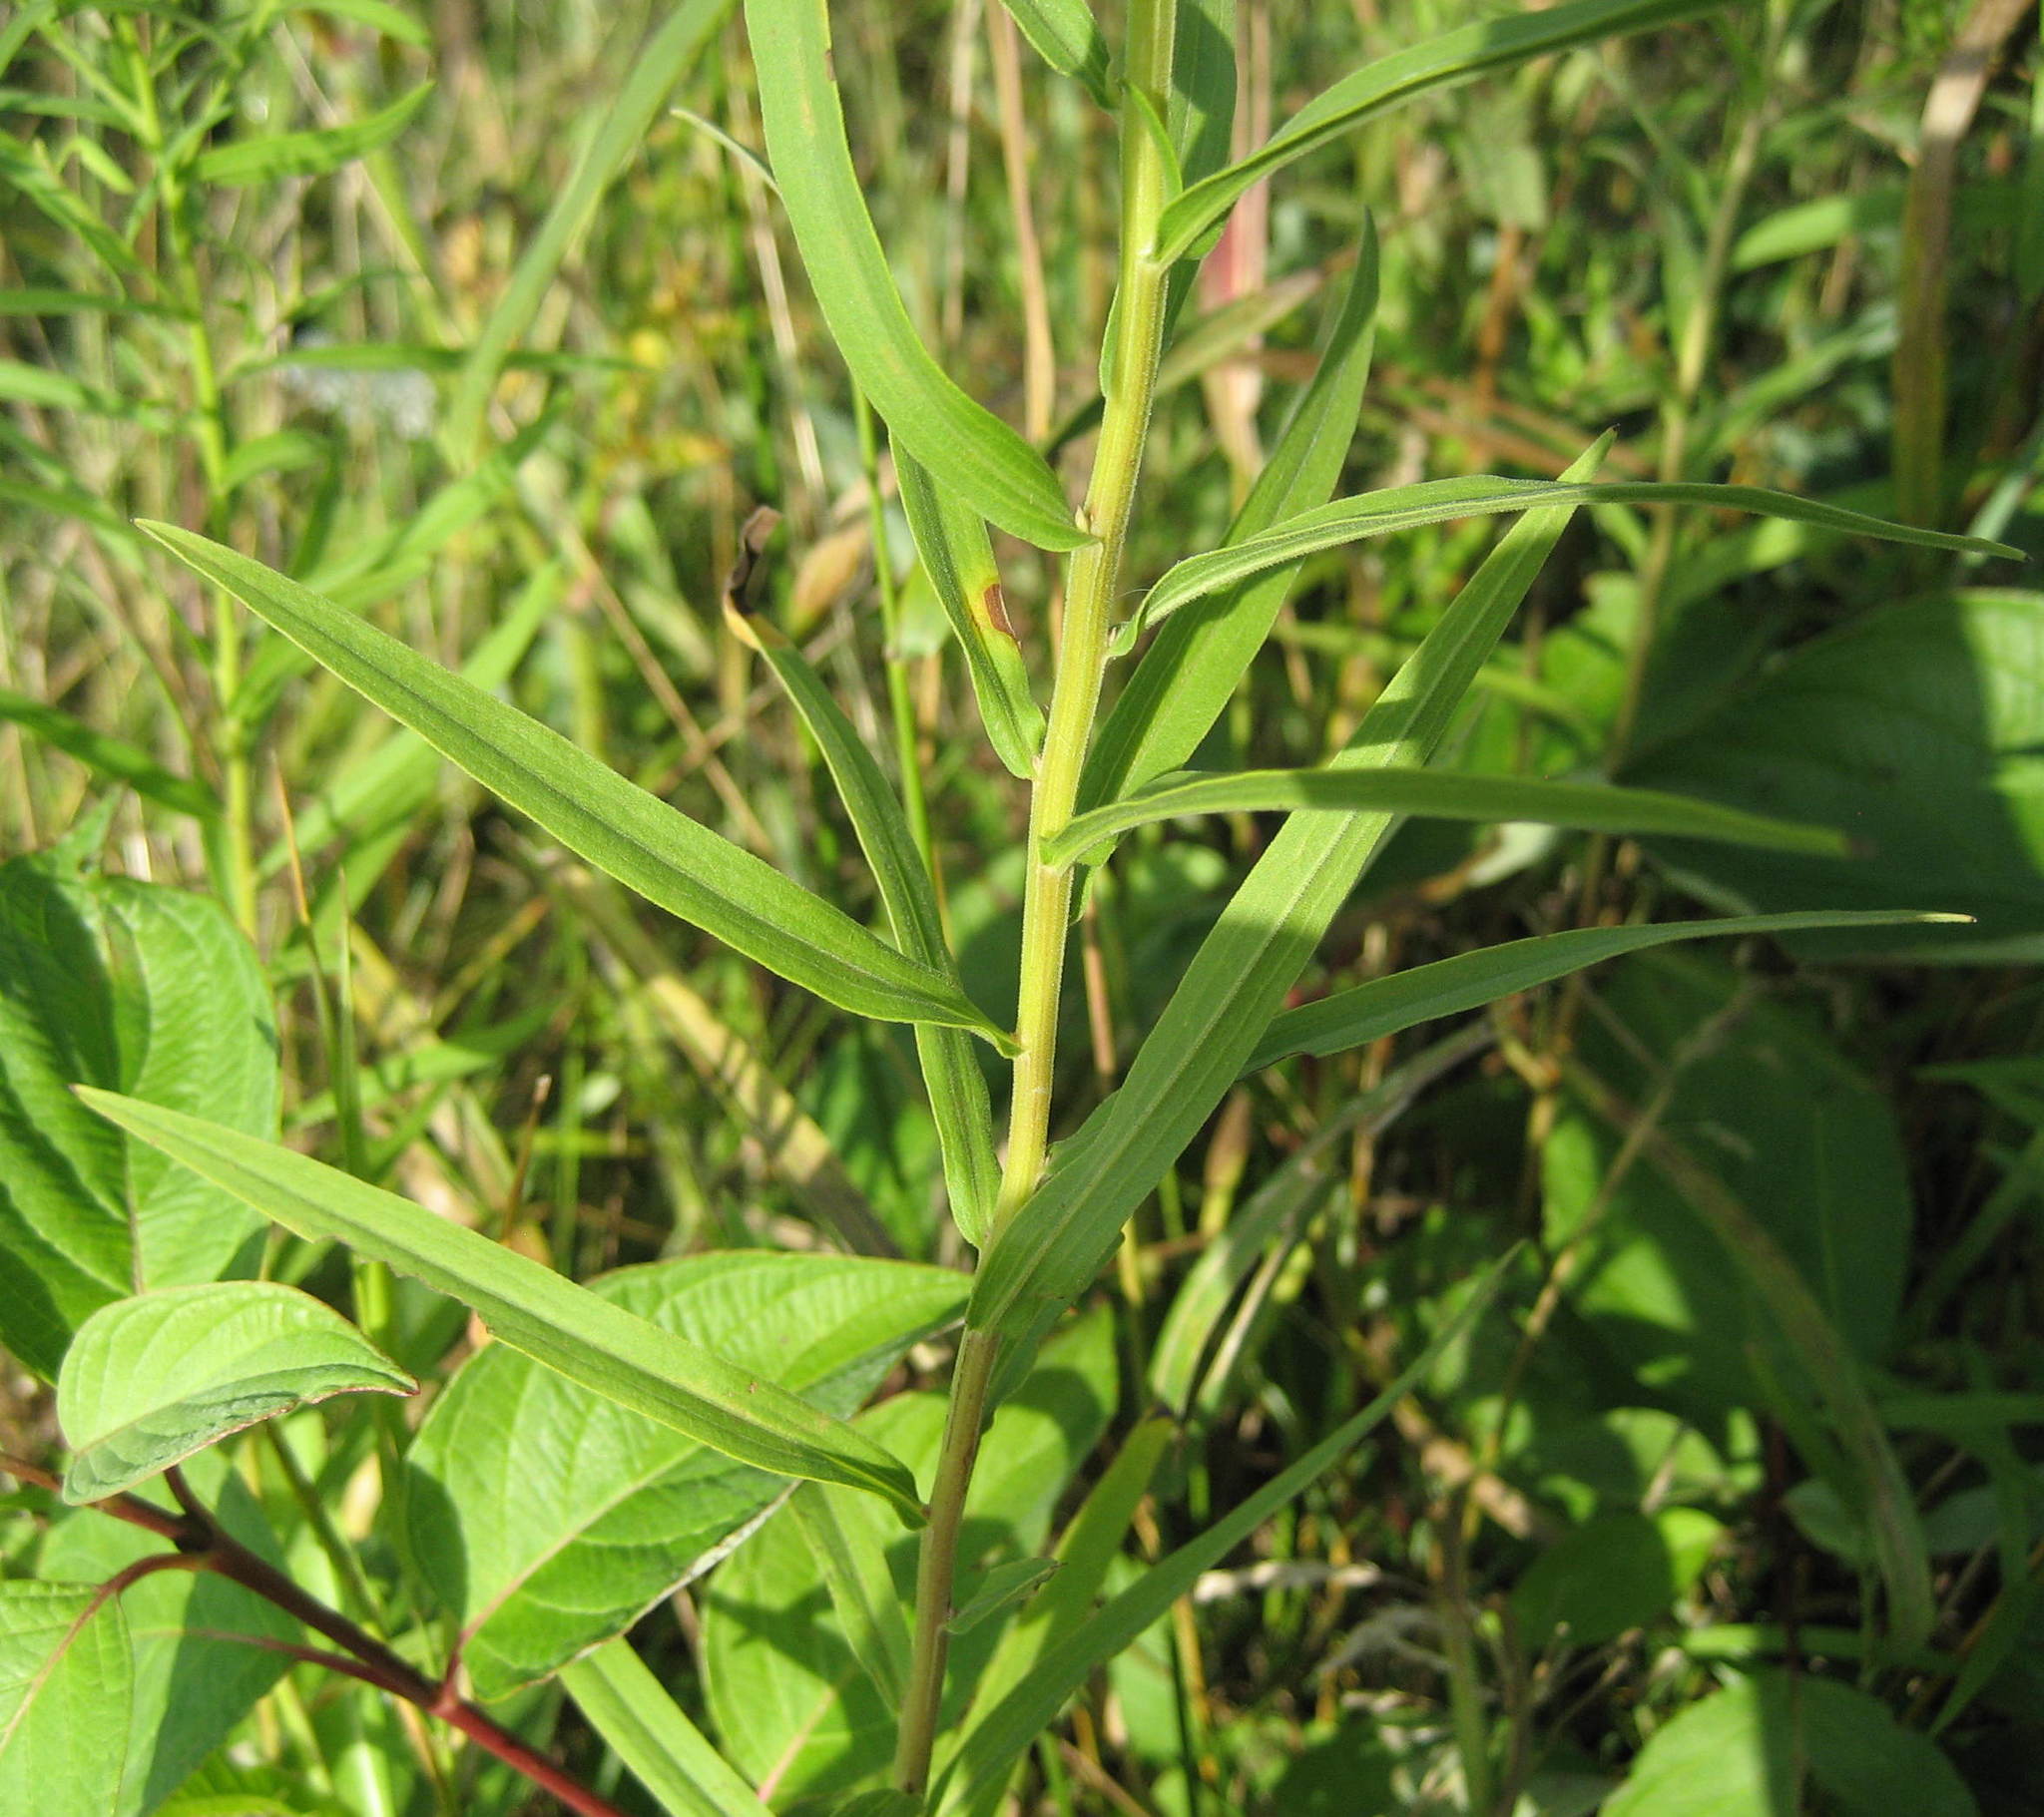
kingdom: Plantae
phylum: Tracheophyta
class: Magnoliopsida
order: Asterales
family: Asteraceae
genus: Euthamia
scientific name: Euthamia graminifolia
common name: Common goldentop
